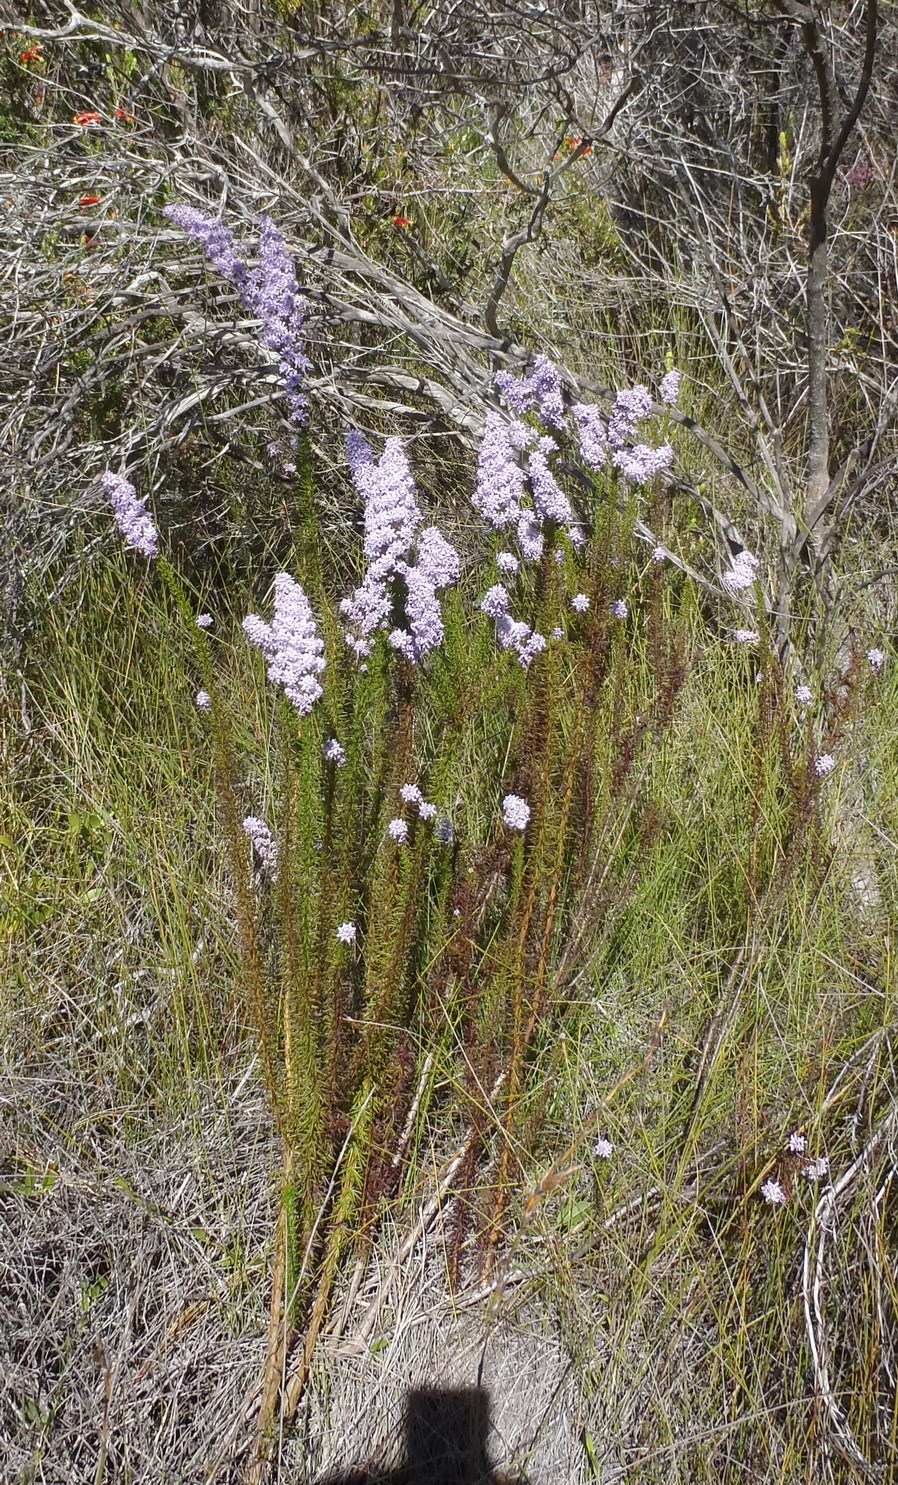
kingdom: Plantae
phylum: Tracheophyta
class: Magnoliopsida
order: Lamiales
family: Scrophulariaceae
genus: Selago
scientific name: Selago canescens
